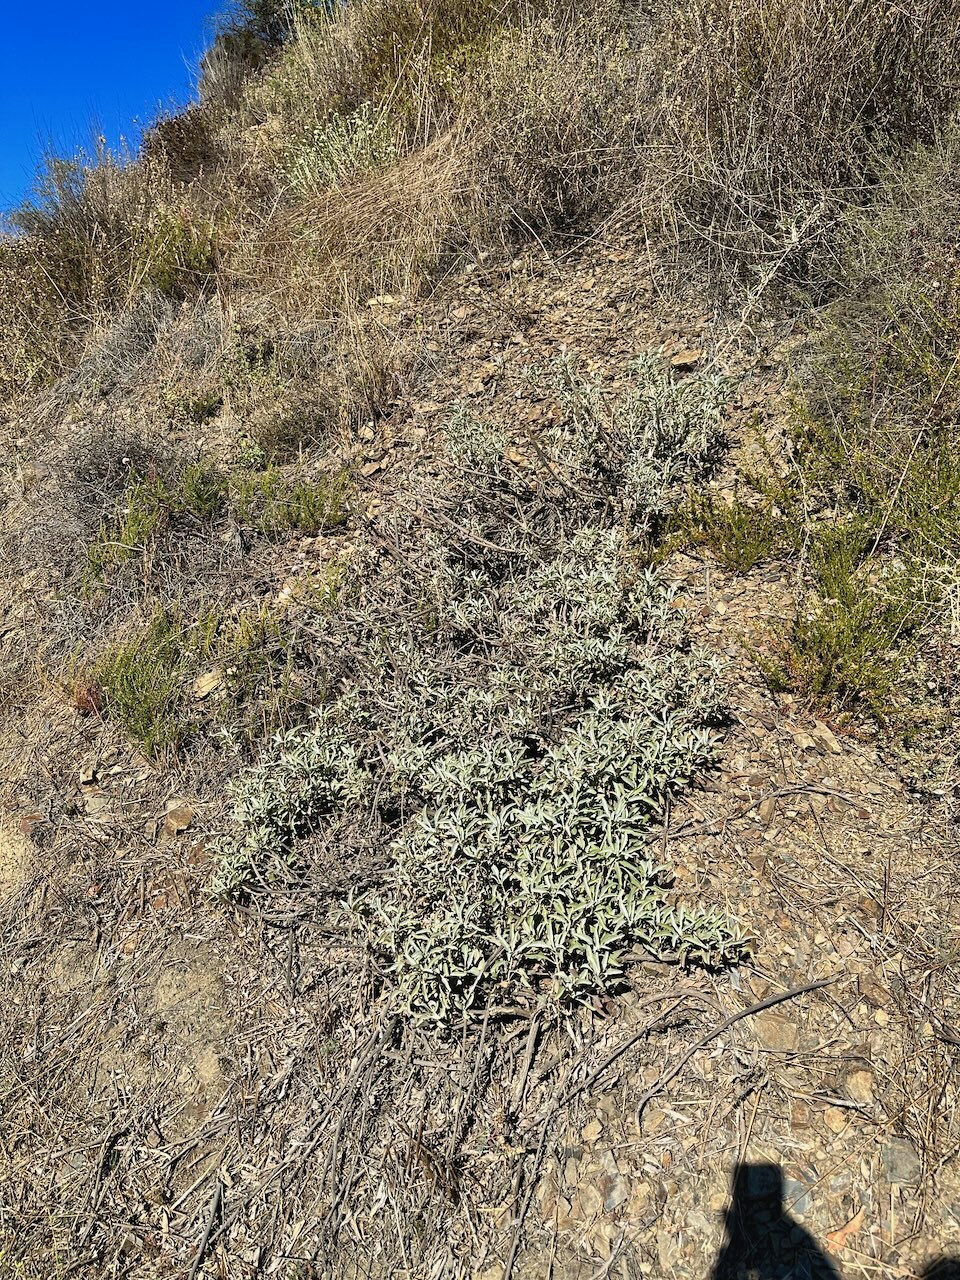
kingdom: Plantae
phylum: Tracheophyta
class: Magnoliopsida
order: Lamiales
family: Lamiaceae
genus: Salvia
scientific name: Salvia apiana
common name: White sage
